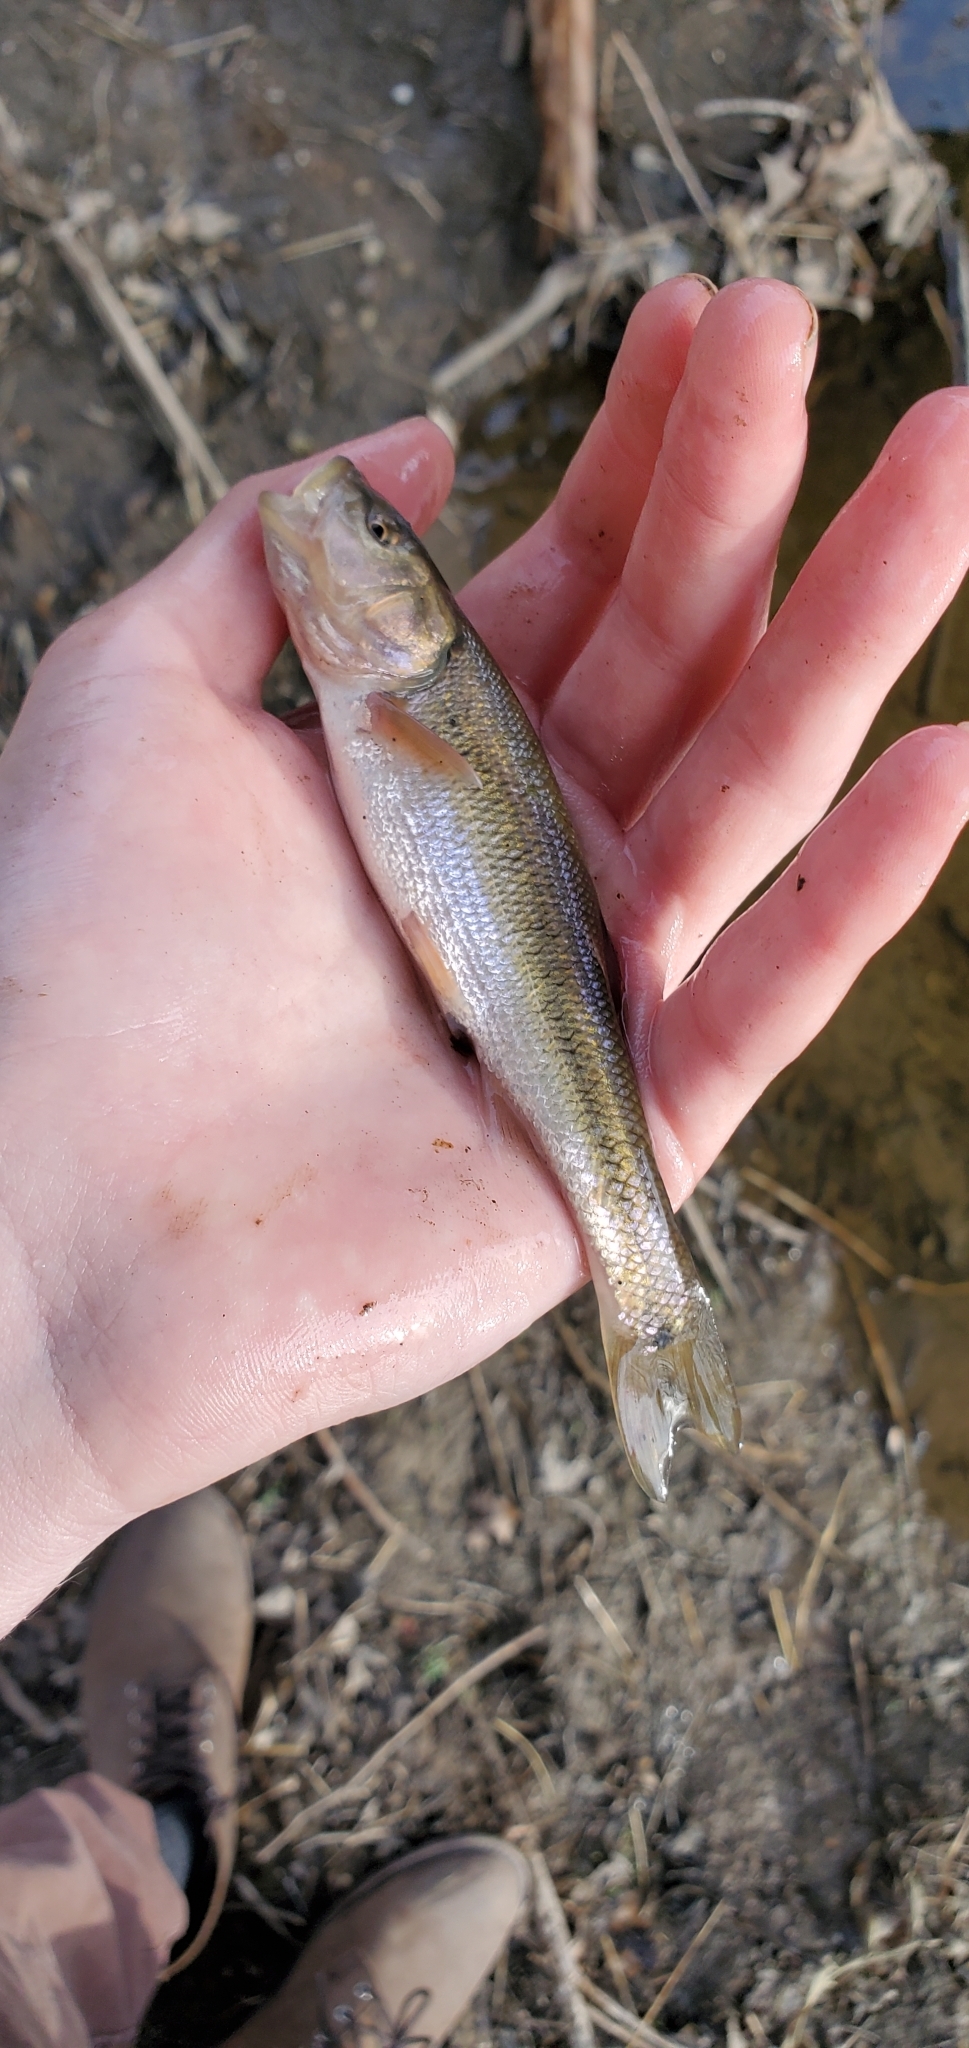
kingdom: Animalia
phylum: Chordata
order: Cypriniformes
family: Cyprinidae
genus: Semotilus
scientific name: Semotilus atromaculatus
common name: Creek chub
